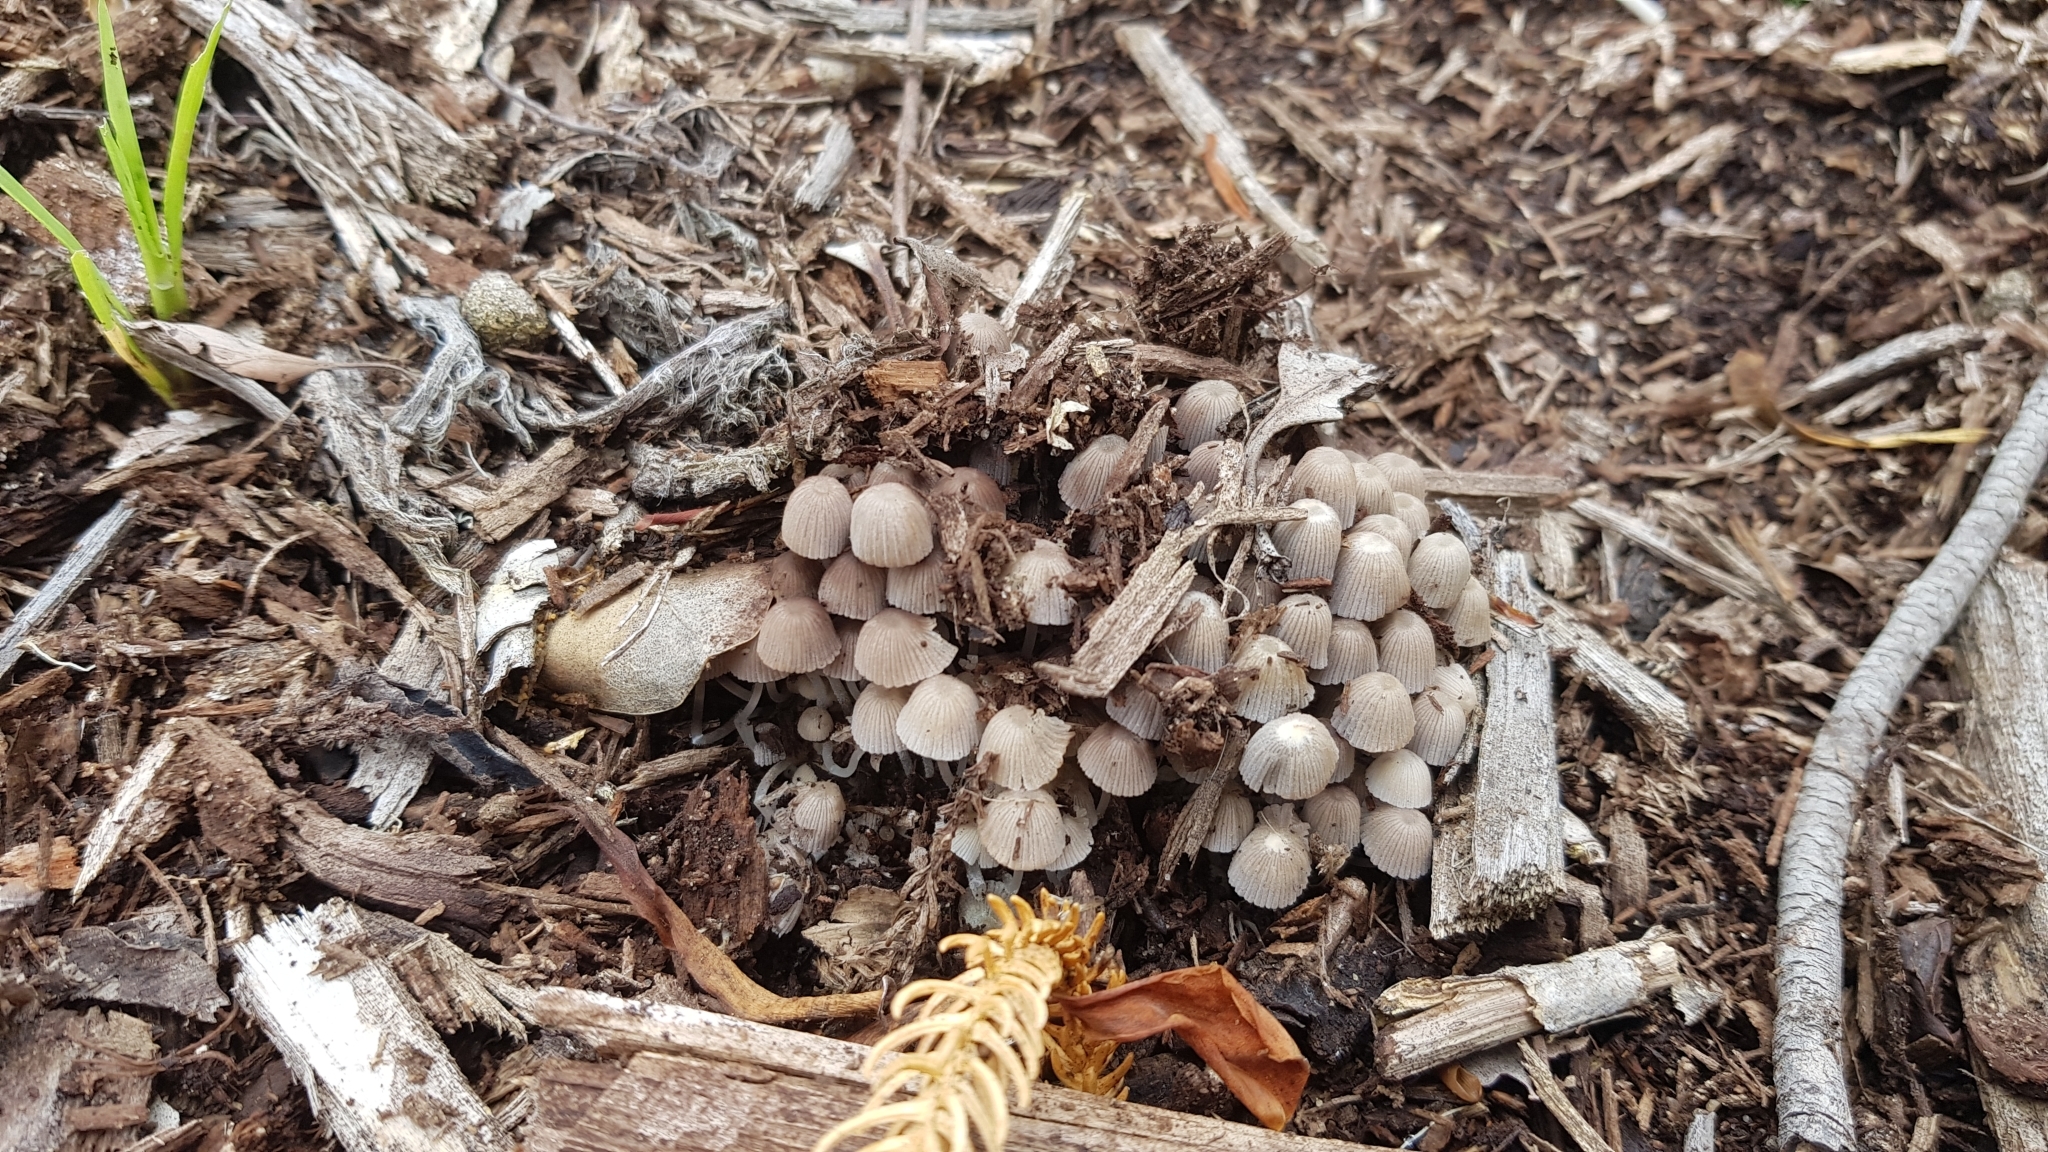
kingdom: Fungi
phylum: Basidiomycota
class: Agaricomycetes
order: Agaricales
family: Psathyrellaceae
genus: Coprinellus
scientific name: Coprinellus disseminatus
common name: Fairies' bonnets
